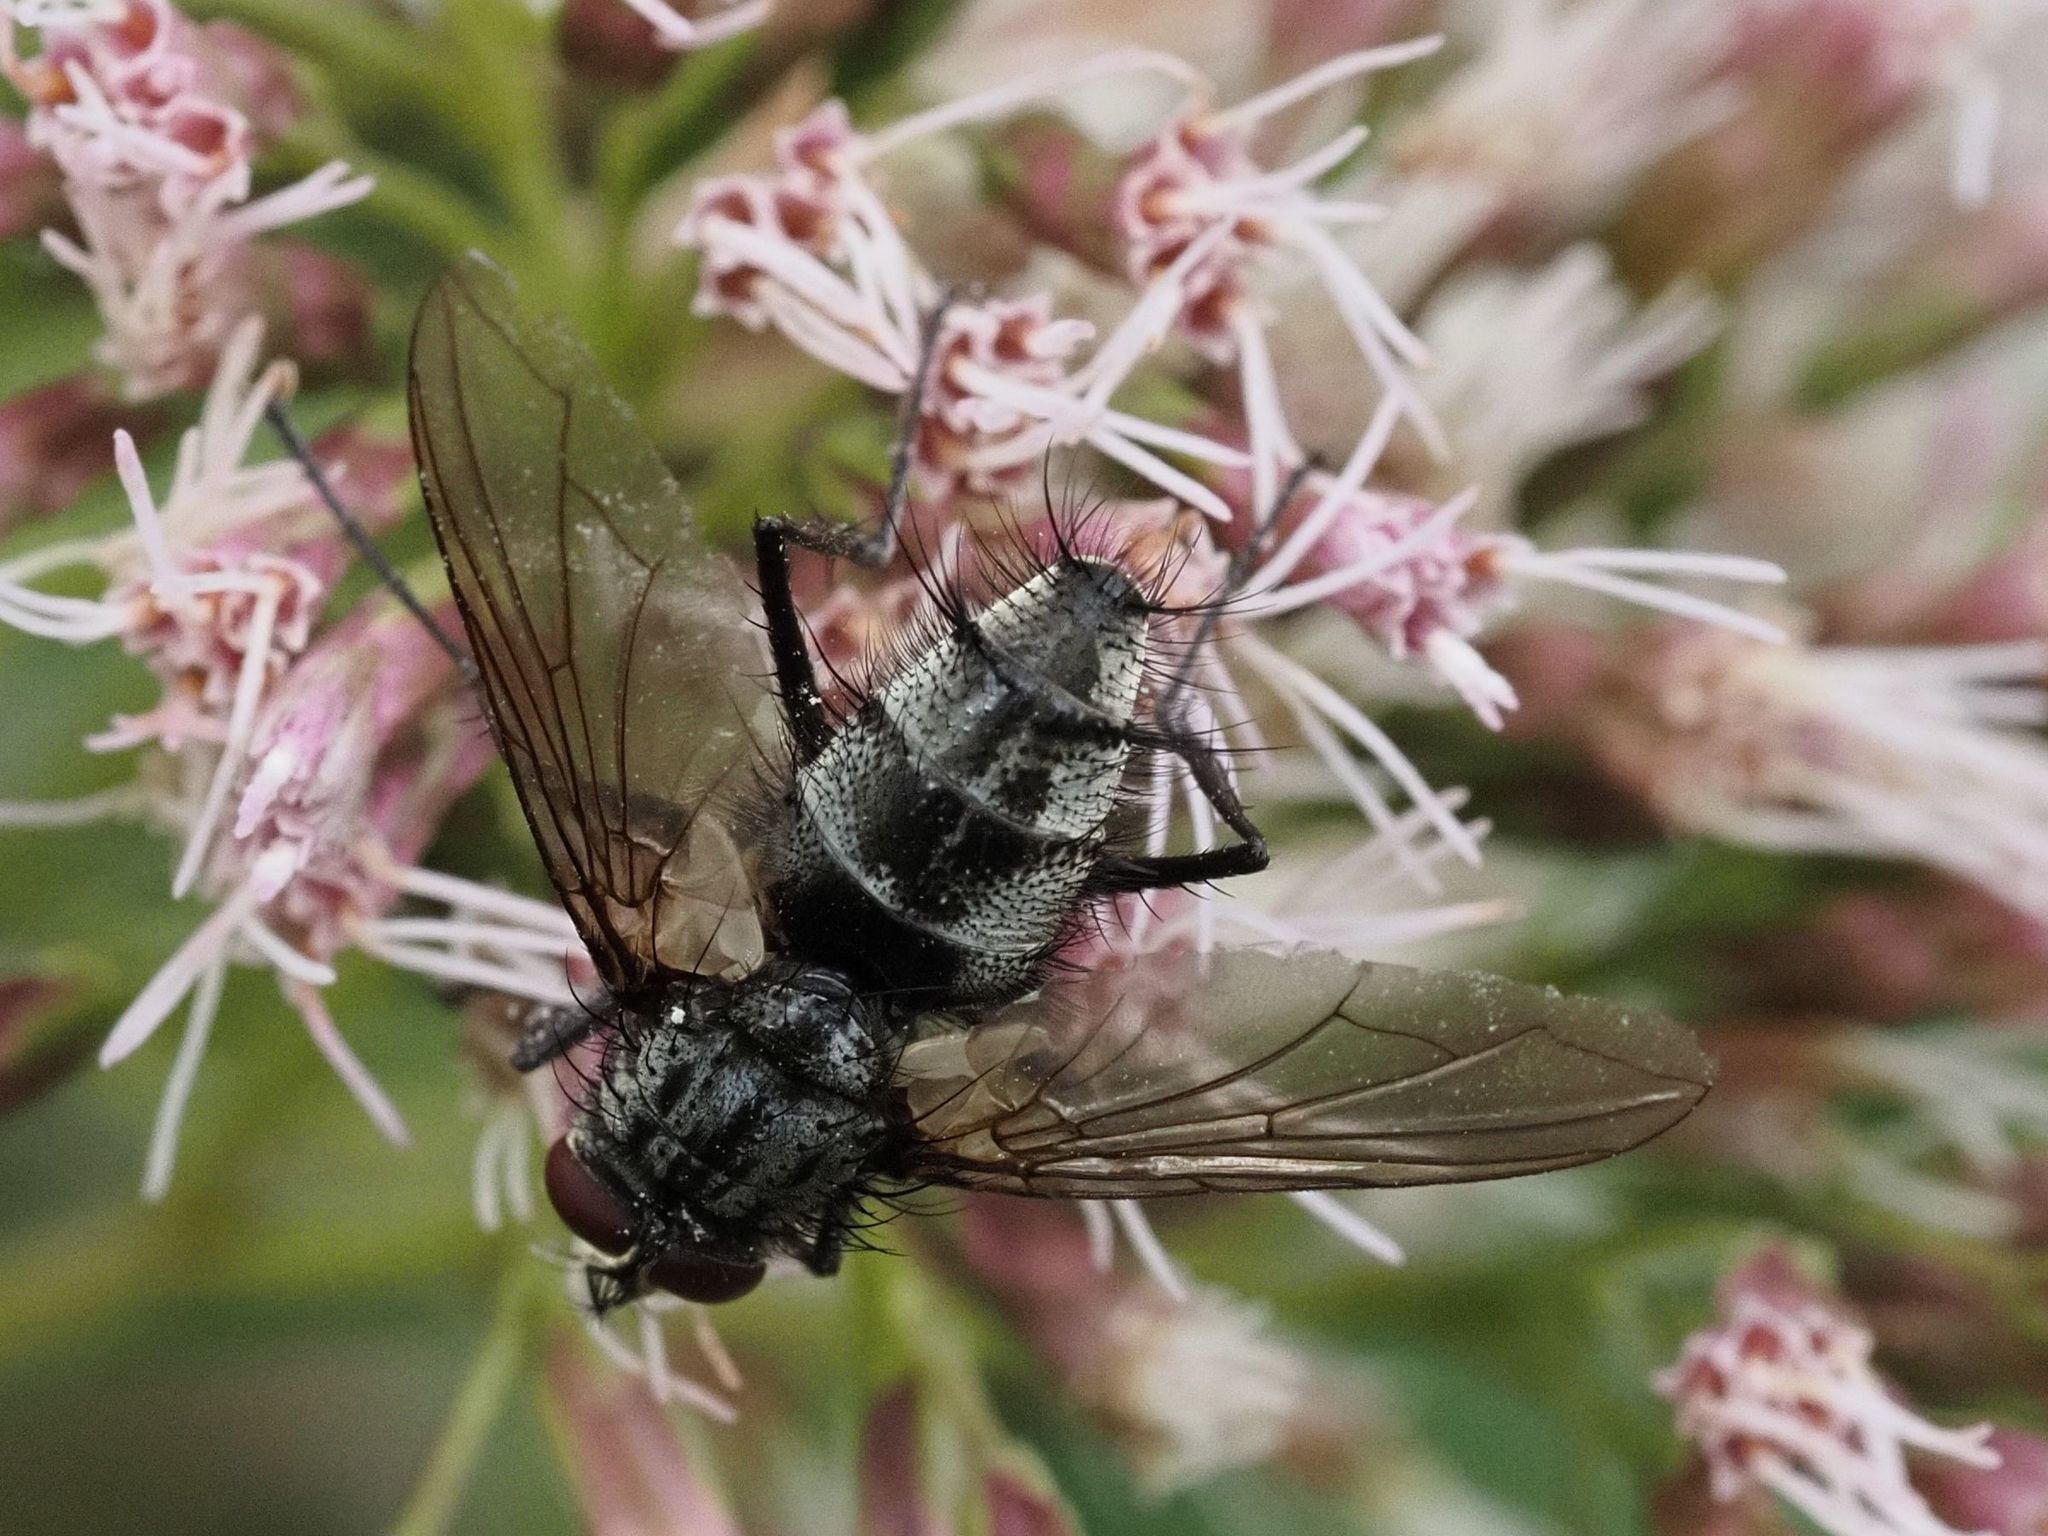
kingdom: Animalia
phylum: Arthropoda
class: Insecta
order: Diptera
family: Tachinidae
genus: Dinera
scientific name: Dinera ferina
